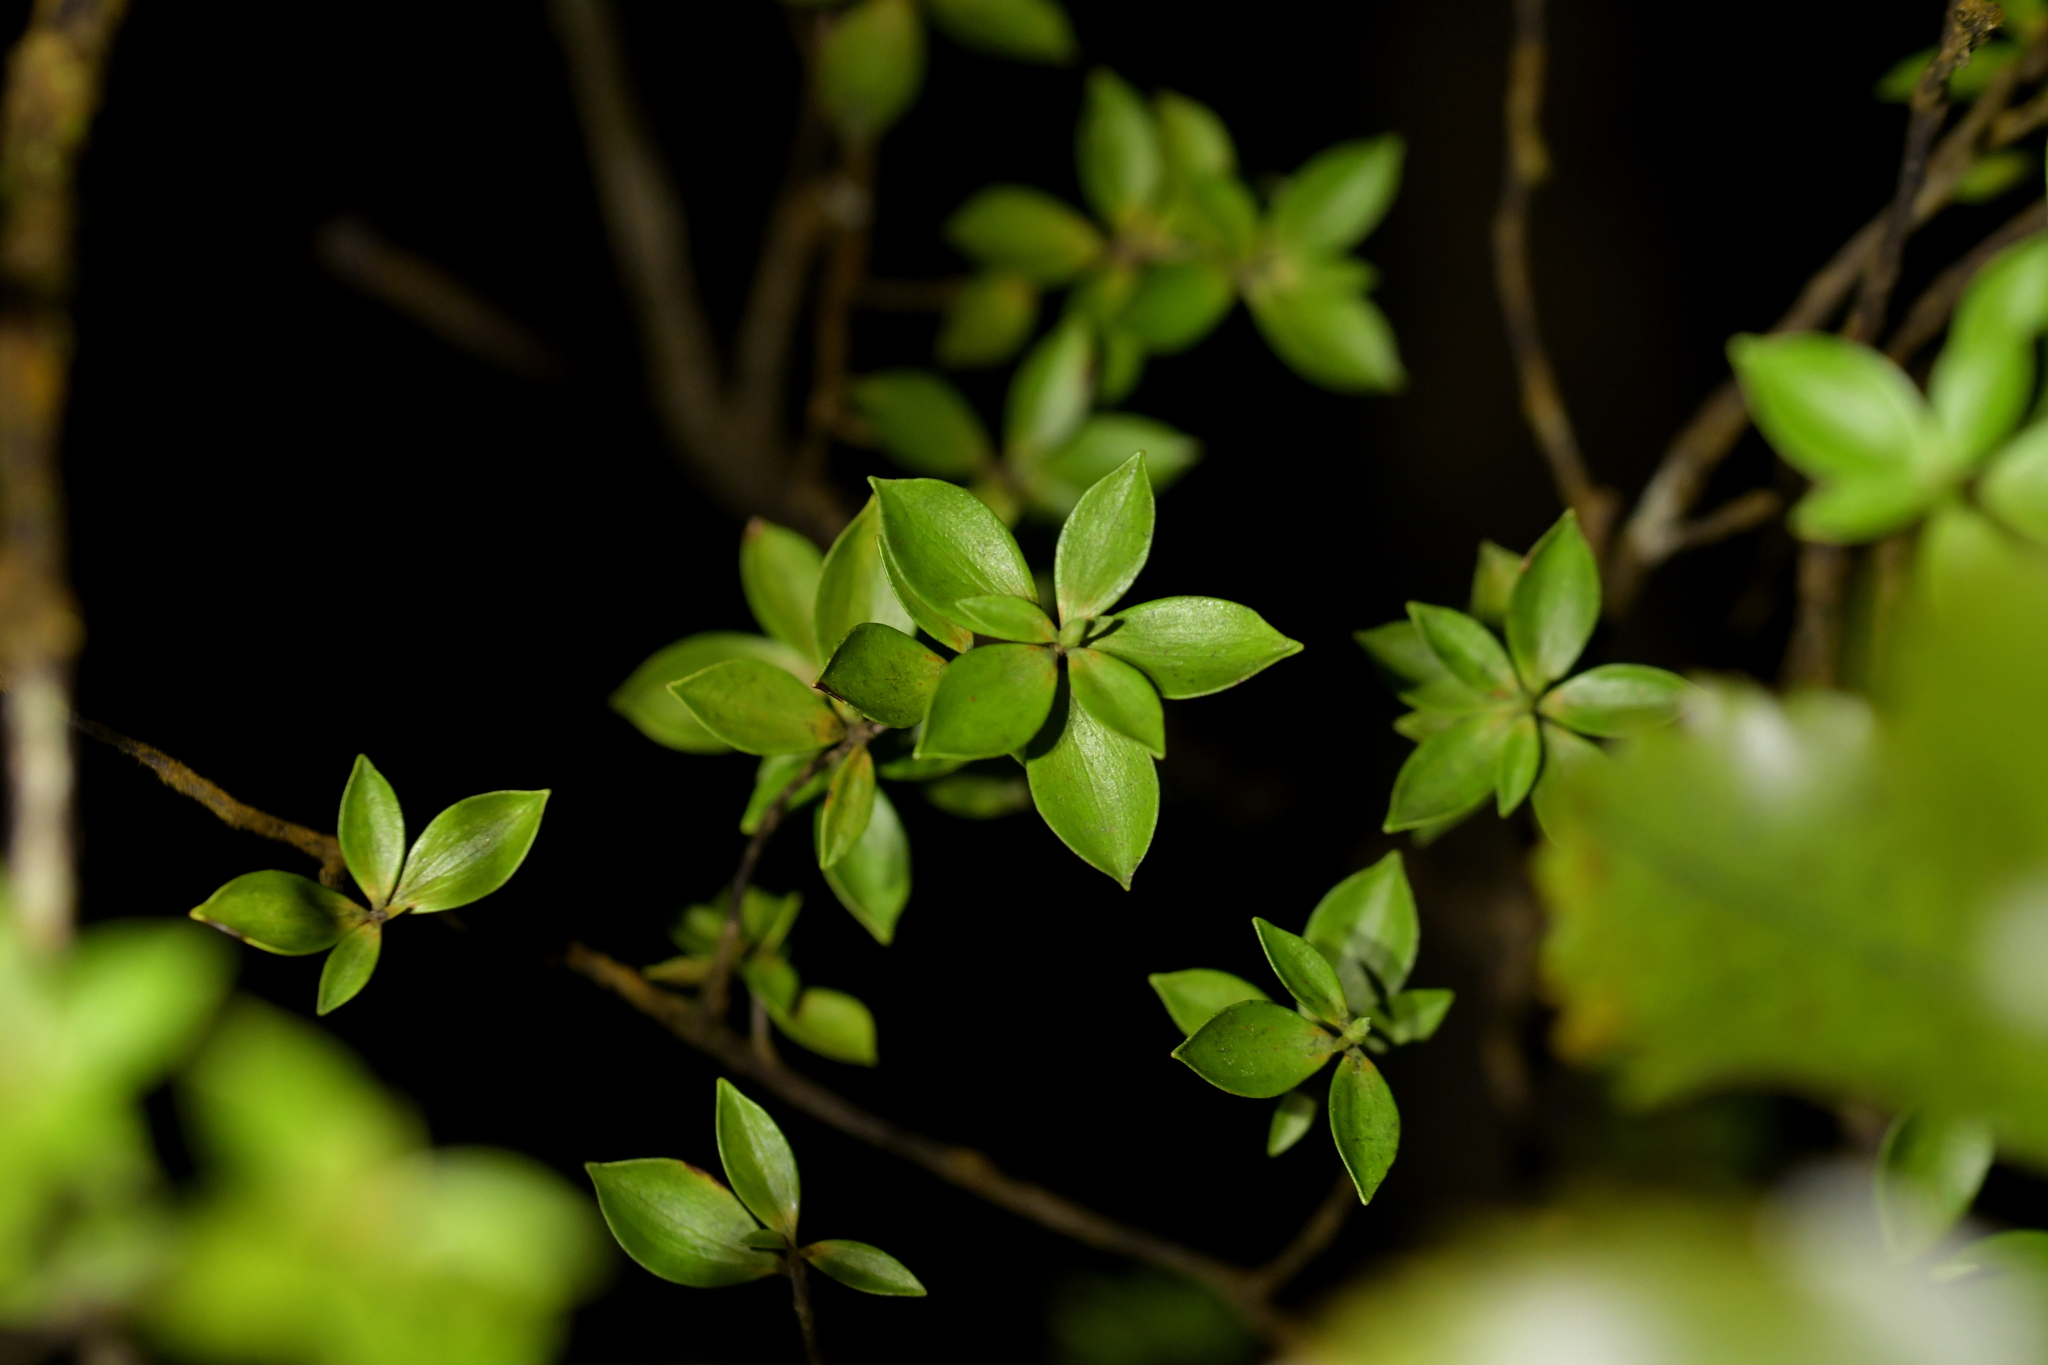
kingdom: Plantae
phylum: Tracheophyta
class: Magnoliopsida
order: Ericales
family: Ericaceae
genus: Archeria
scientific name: Archeria racemosa
